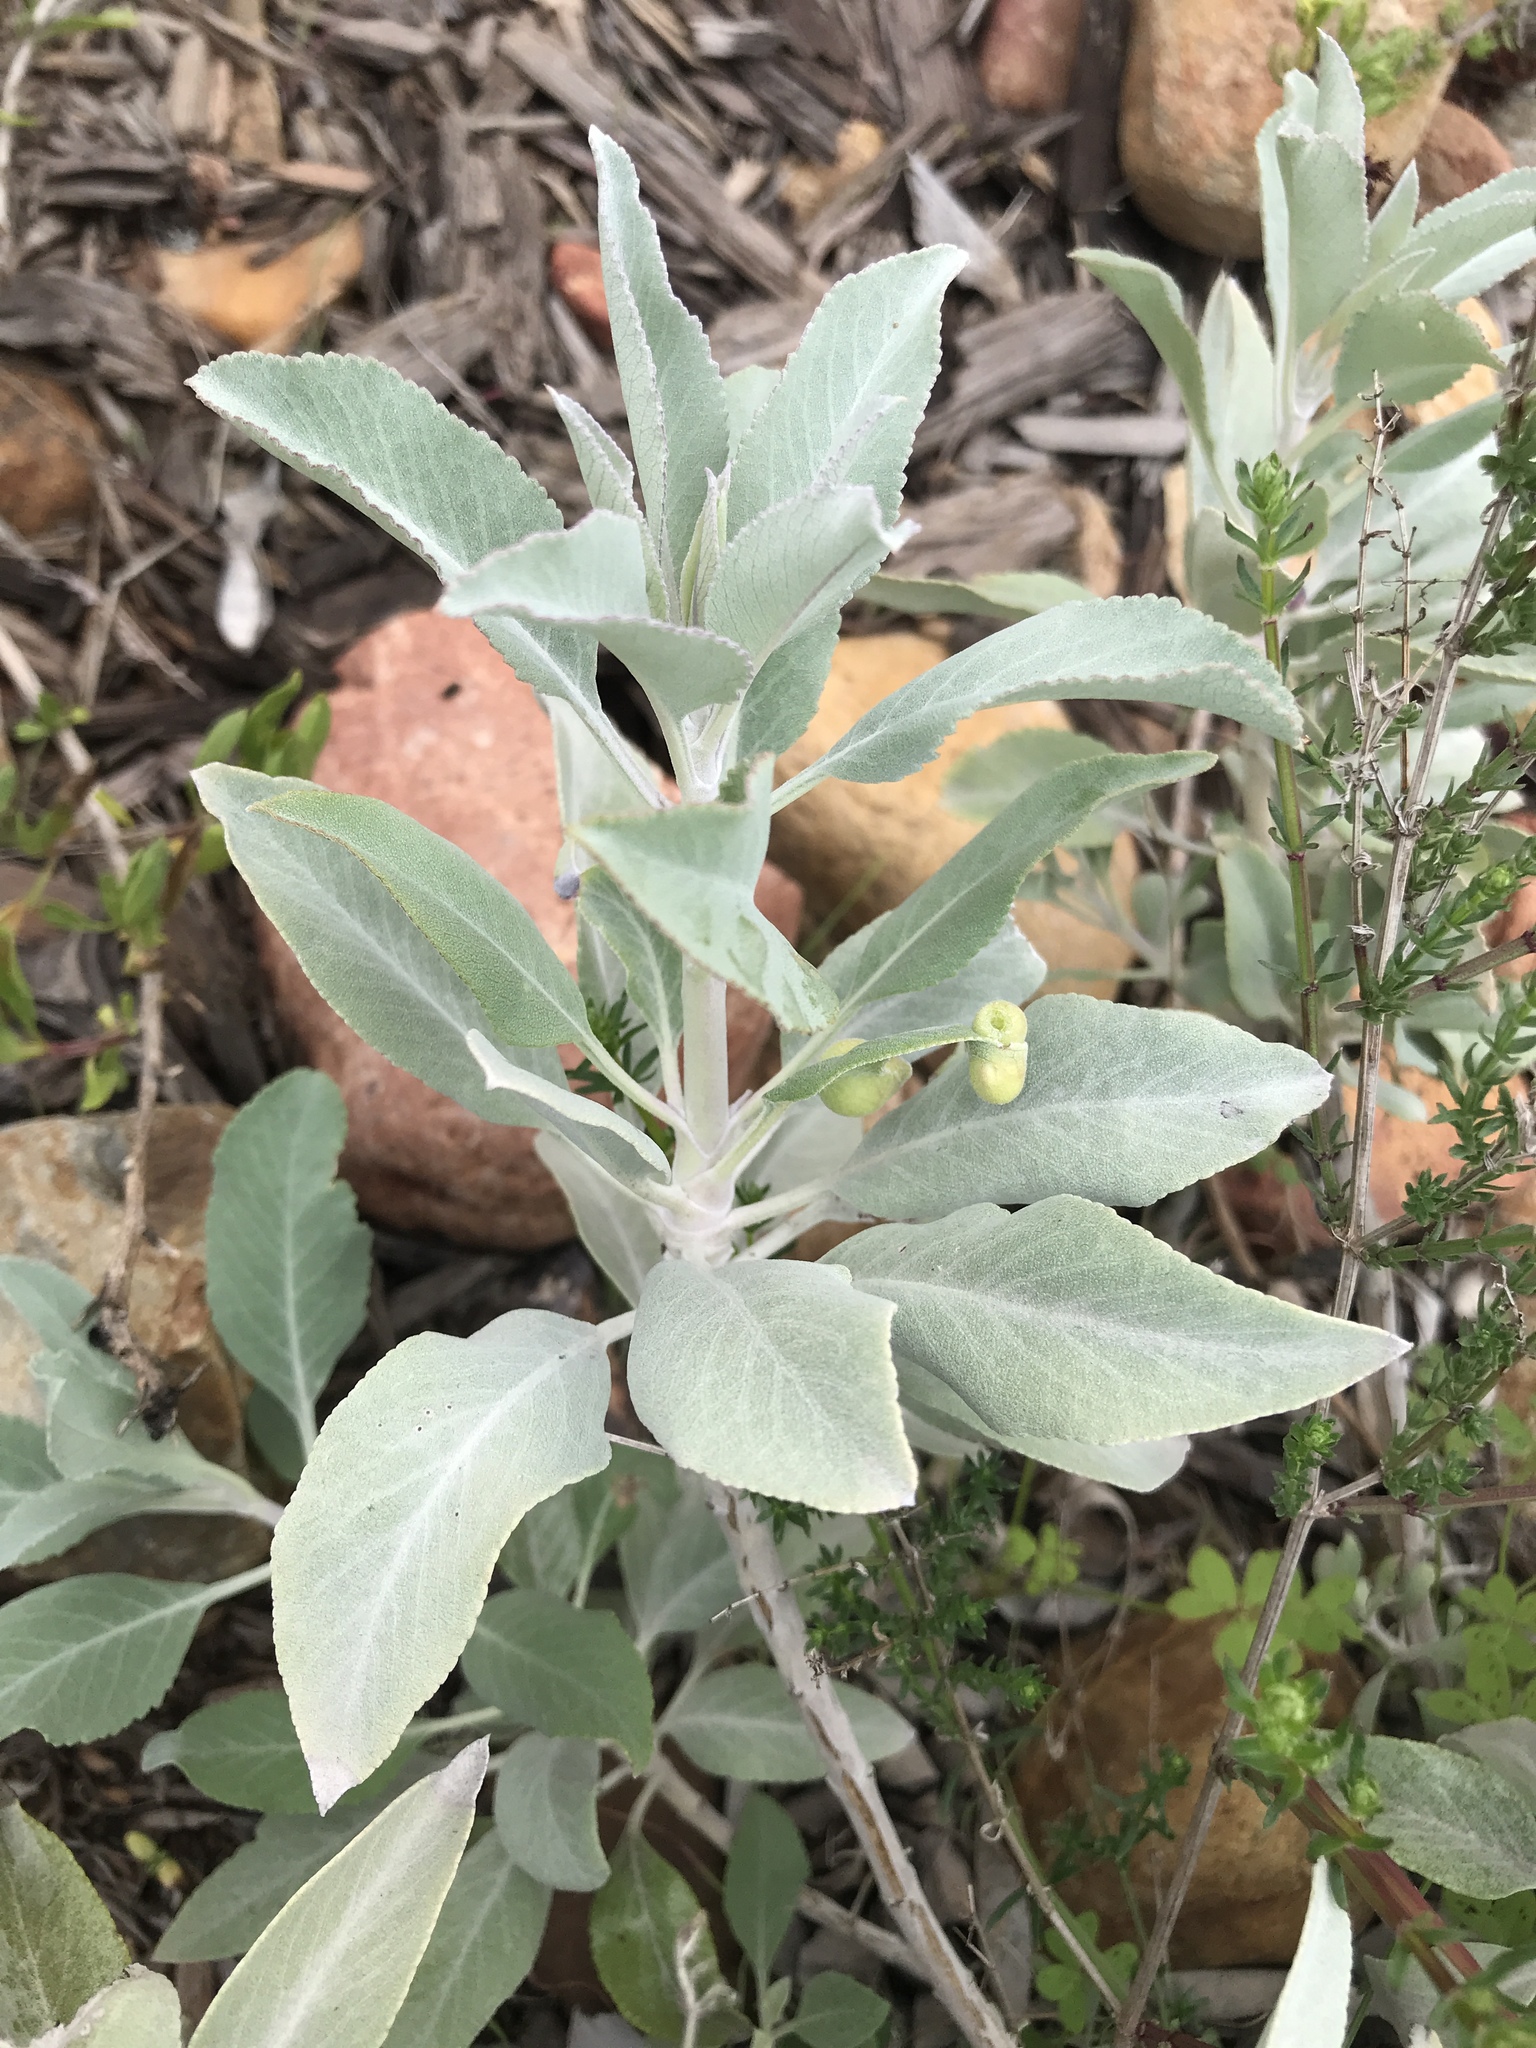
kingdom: Plantae
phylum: Tracheophyta
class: Magnoliopsida
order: Lamiales
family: Lamiaceae
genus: Salvia
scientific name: Salvia apiana
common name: White sage
